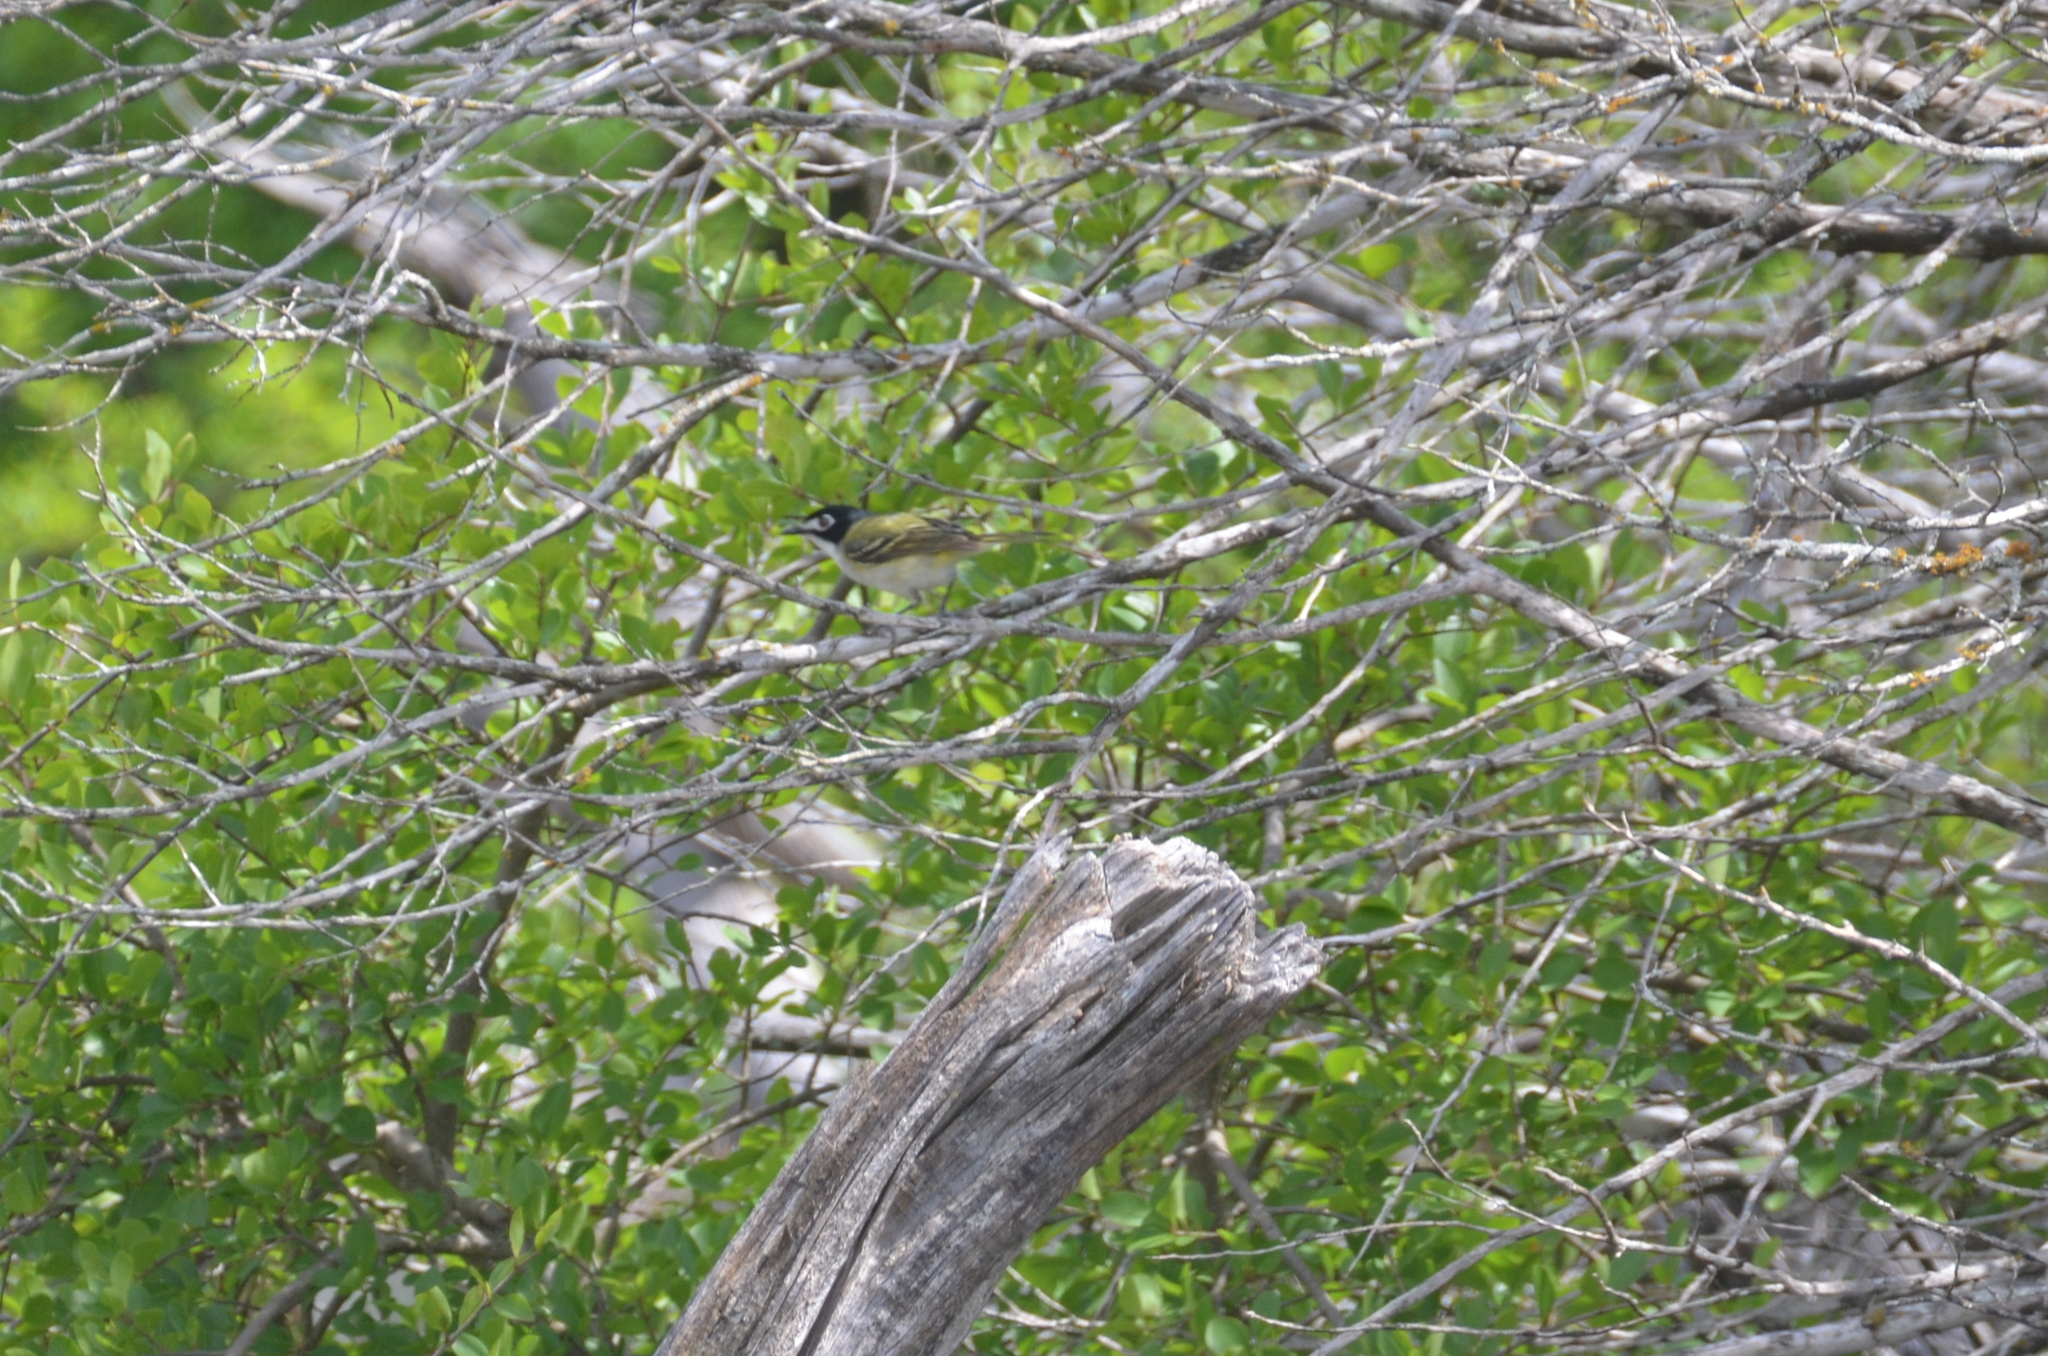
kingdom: Animalia
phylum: Chordata
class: Aves
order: Passeriformes
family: Vireonidae
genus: Vireo
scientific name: Vireo atricapilla
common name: Black-capped vireo
